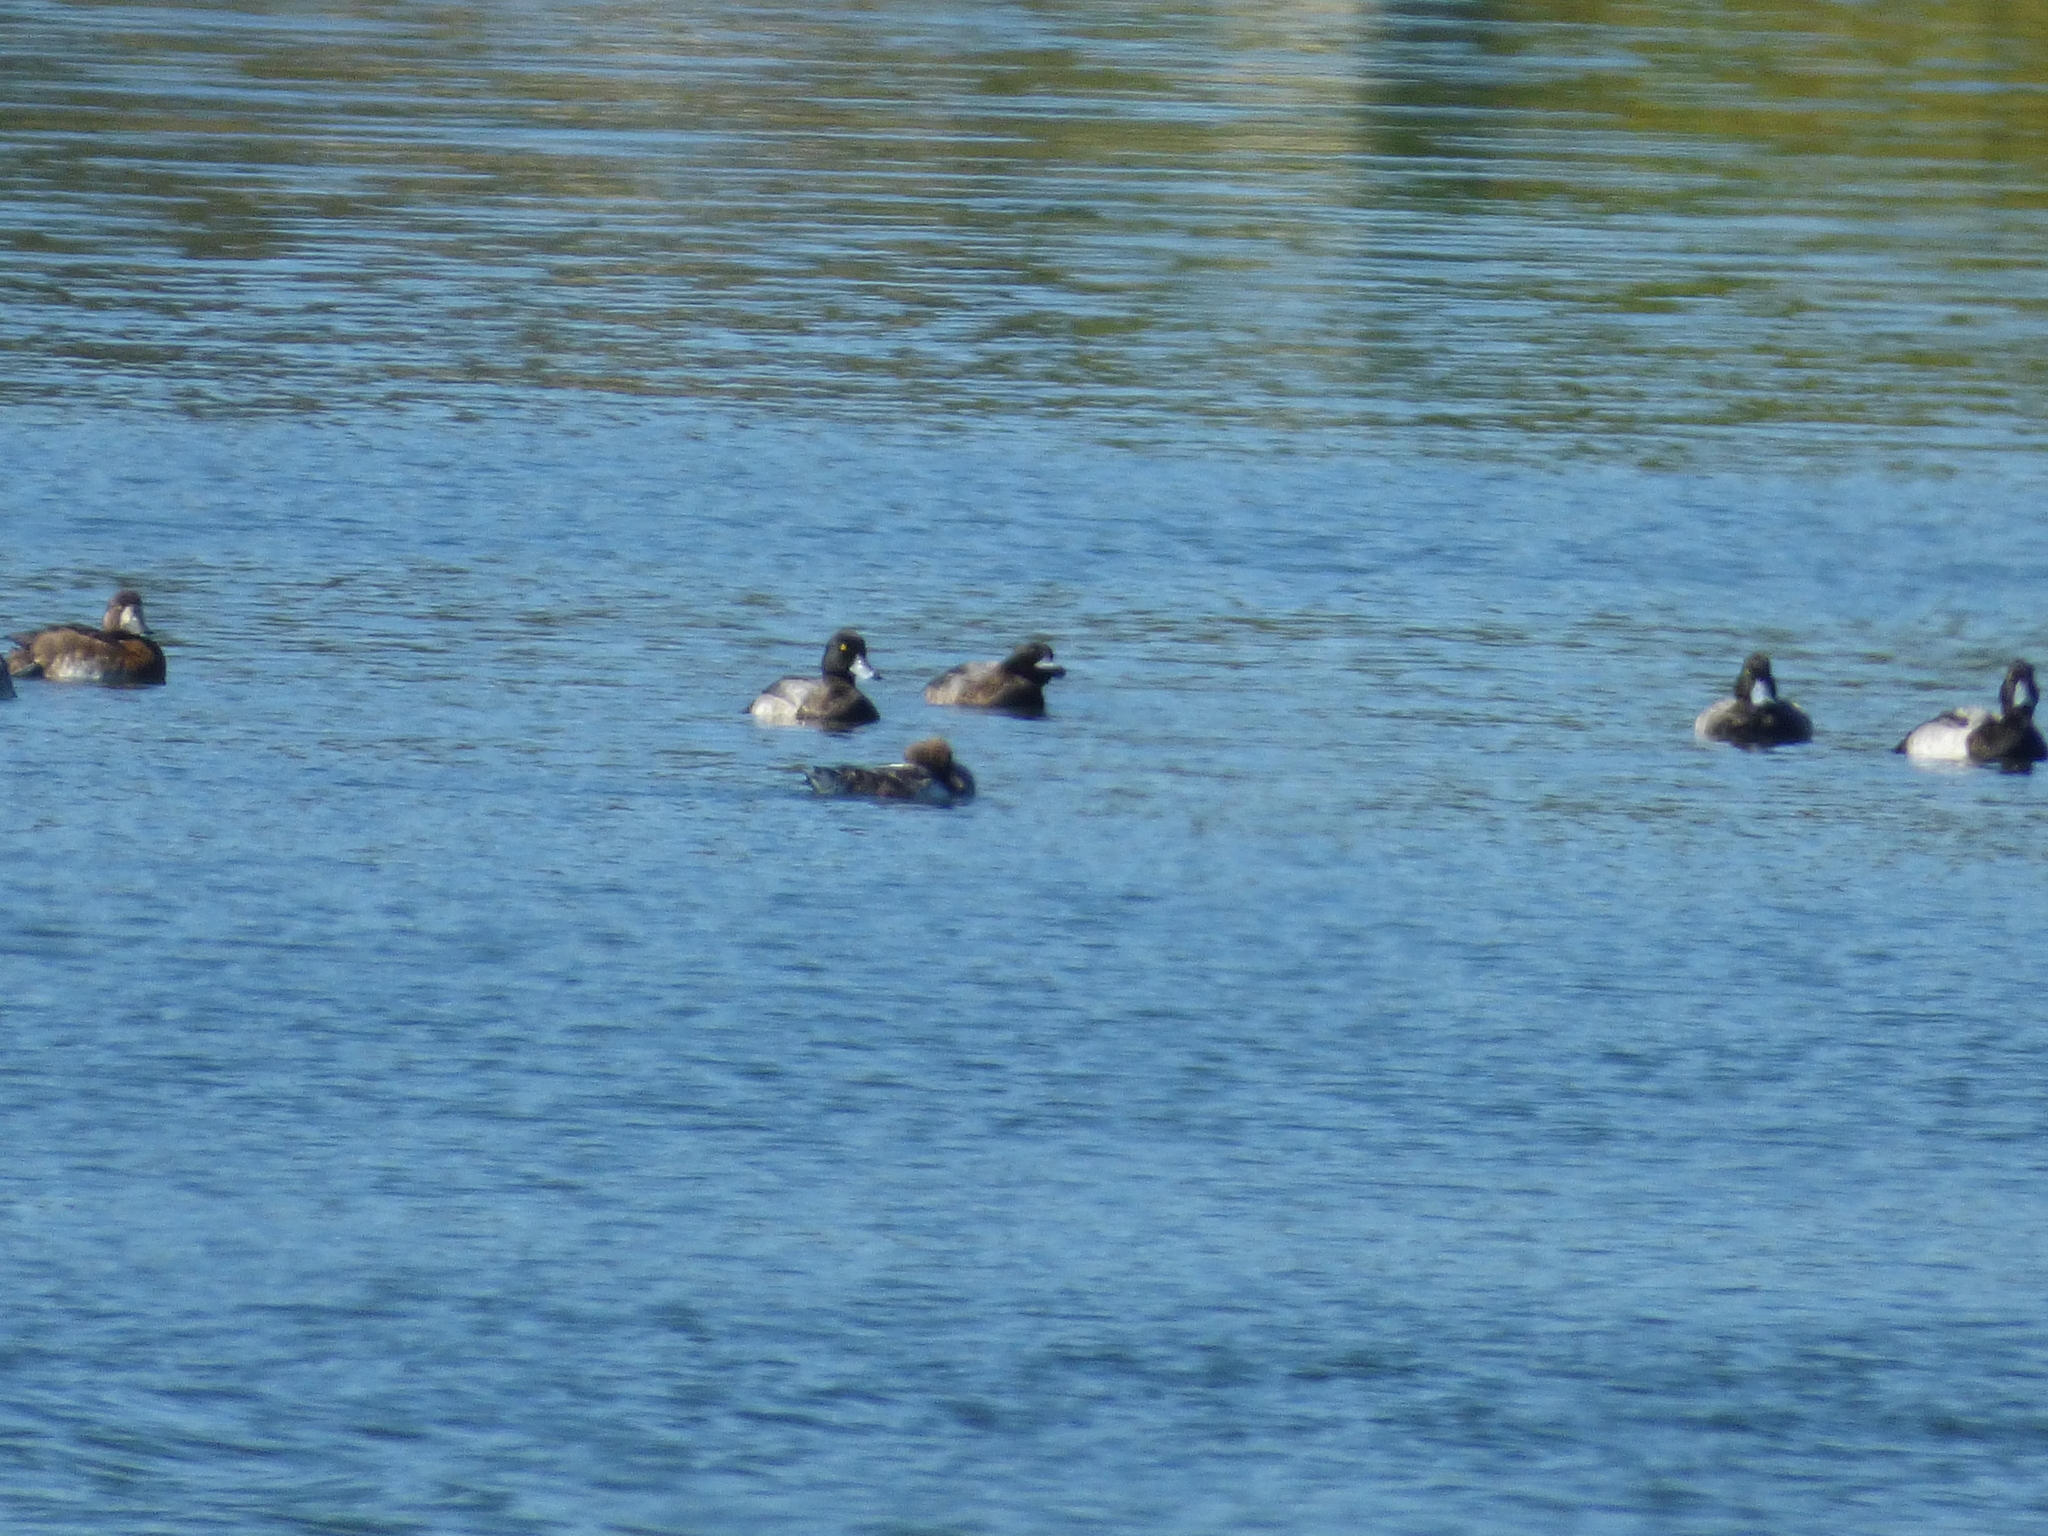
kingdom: Animalia
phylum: Chordata
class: Aves
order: Anseriformes
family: Anatidae
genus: Aythya
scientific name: Aythya marila
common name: Greater scaup
